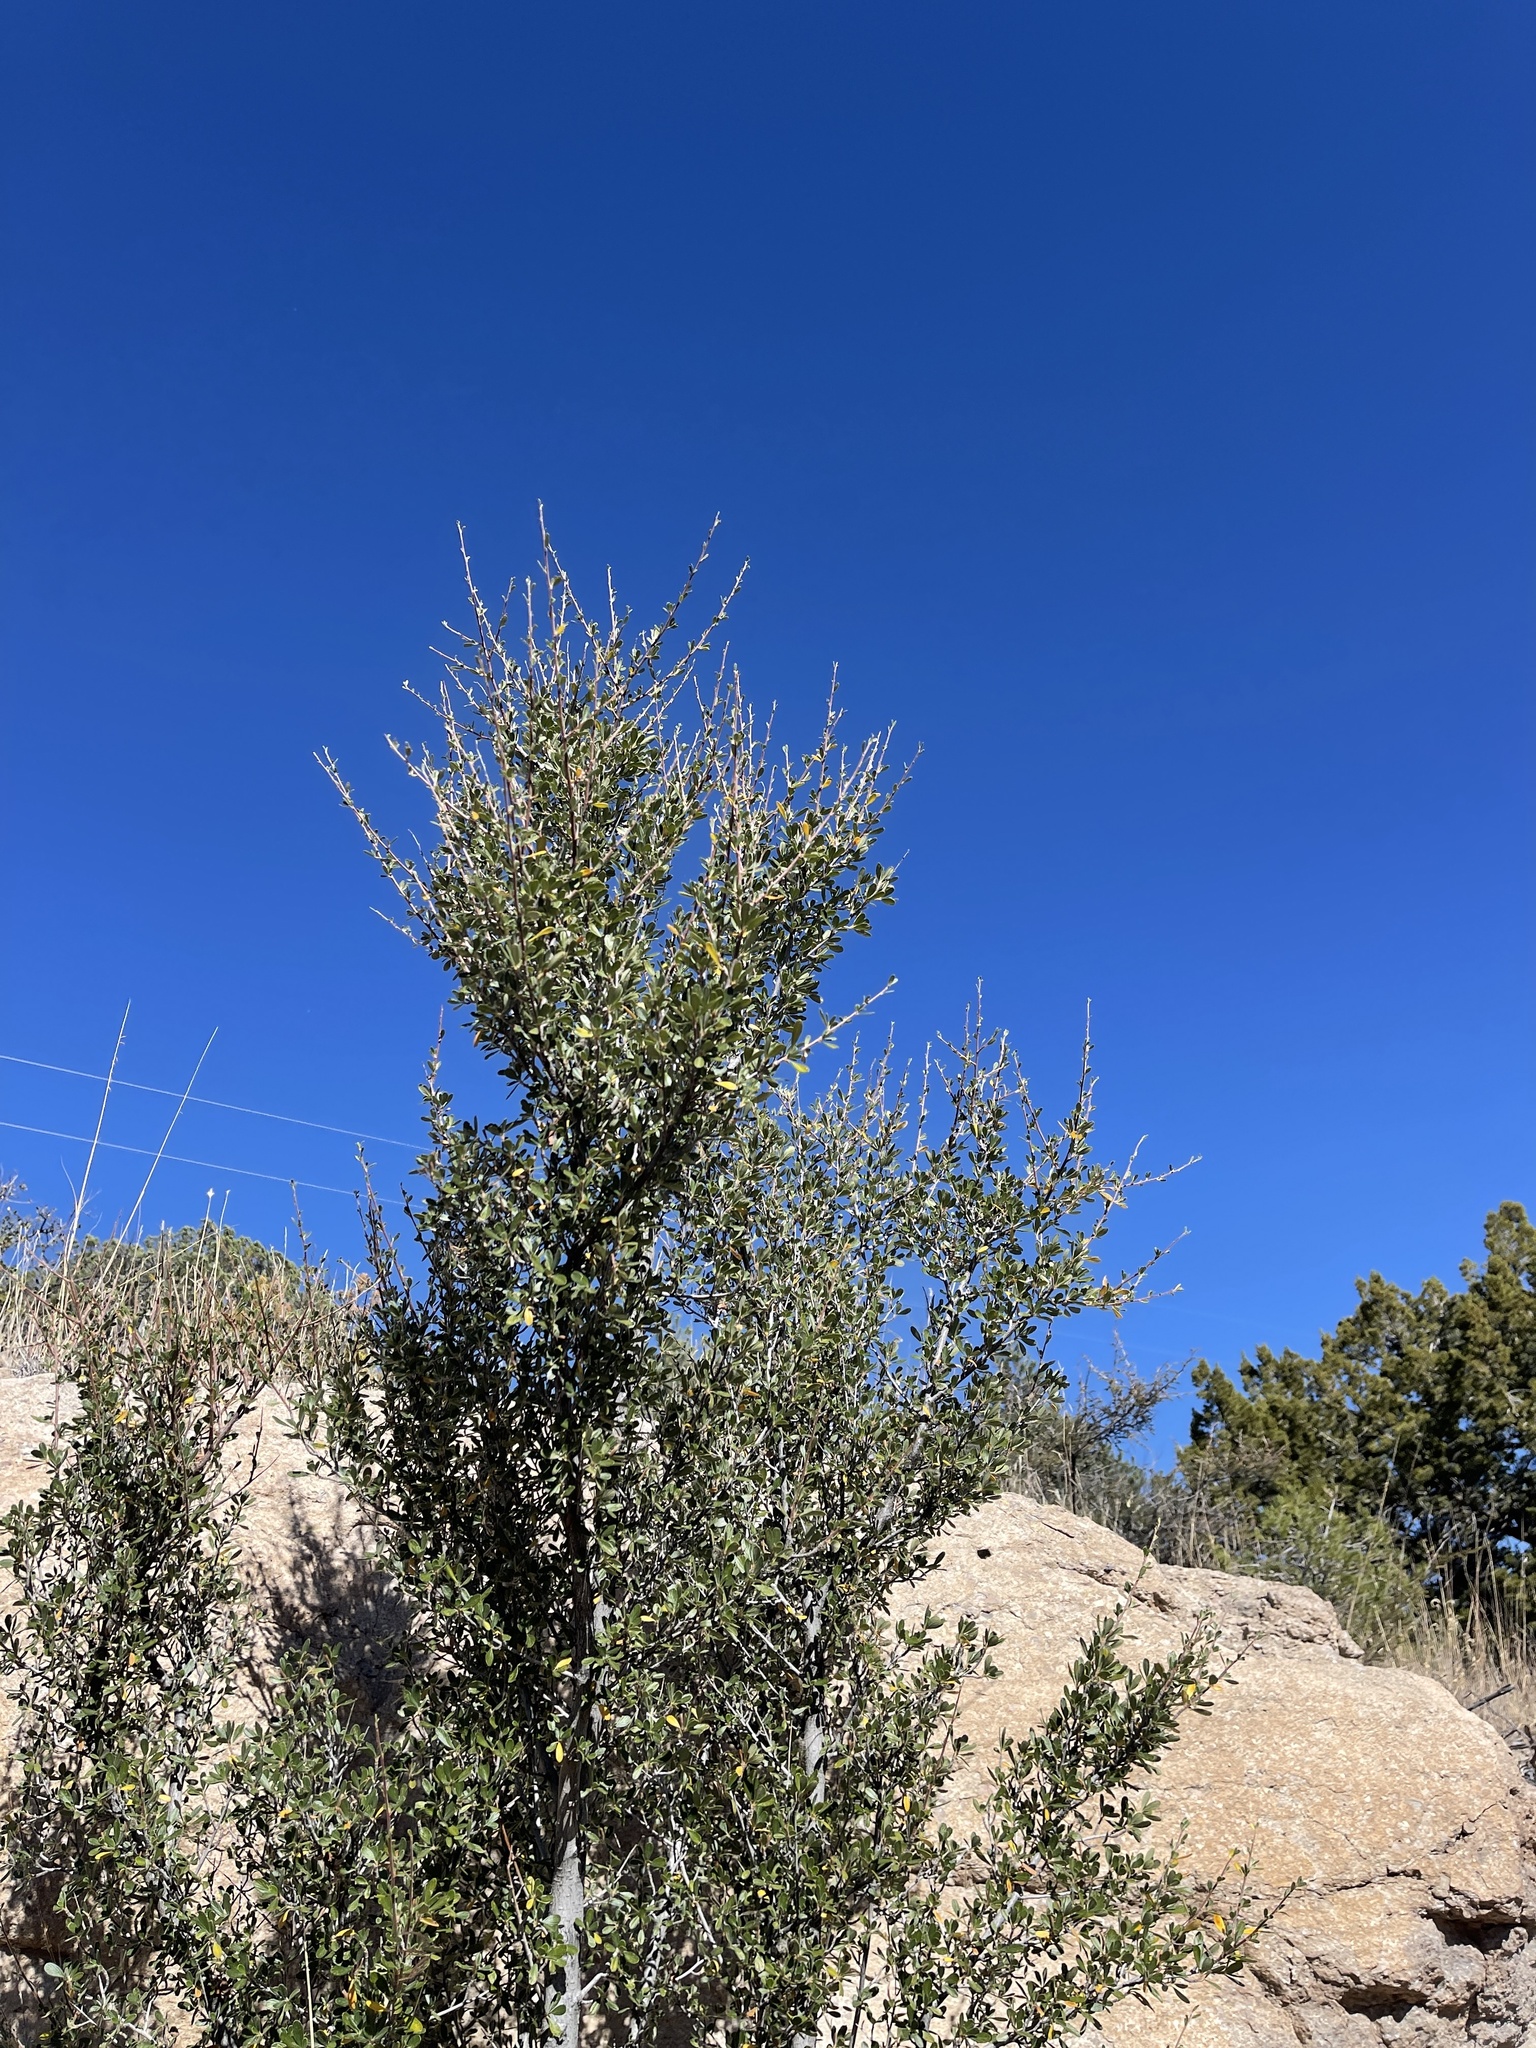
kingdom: Plantae
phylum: Tracheophyta
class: Magnoliopsida
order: Rosales
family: Rosaceae
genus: Cercocarpus
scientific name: Cercocarpus breviflorus
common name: Wright's mountain-mahogany
